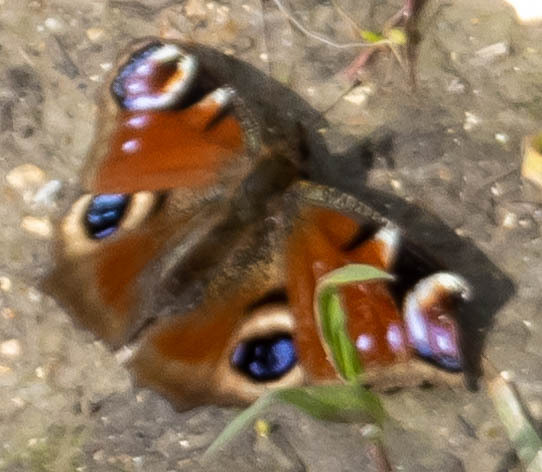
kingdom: Animalia
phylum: Arthropoda
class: Insecta
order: Lepidoptera
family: Nymphalidae
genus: Aglais
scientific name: Aglais io
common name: Peacock
